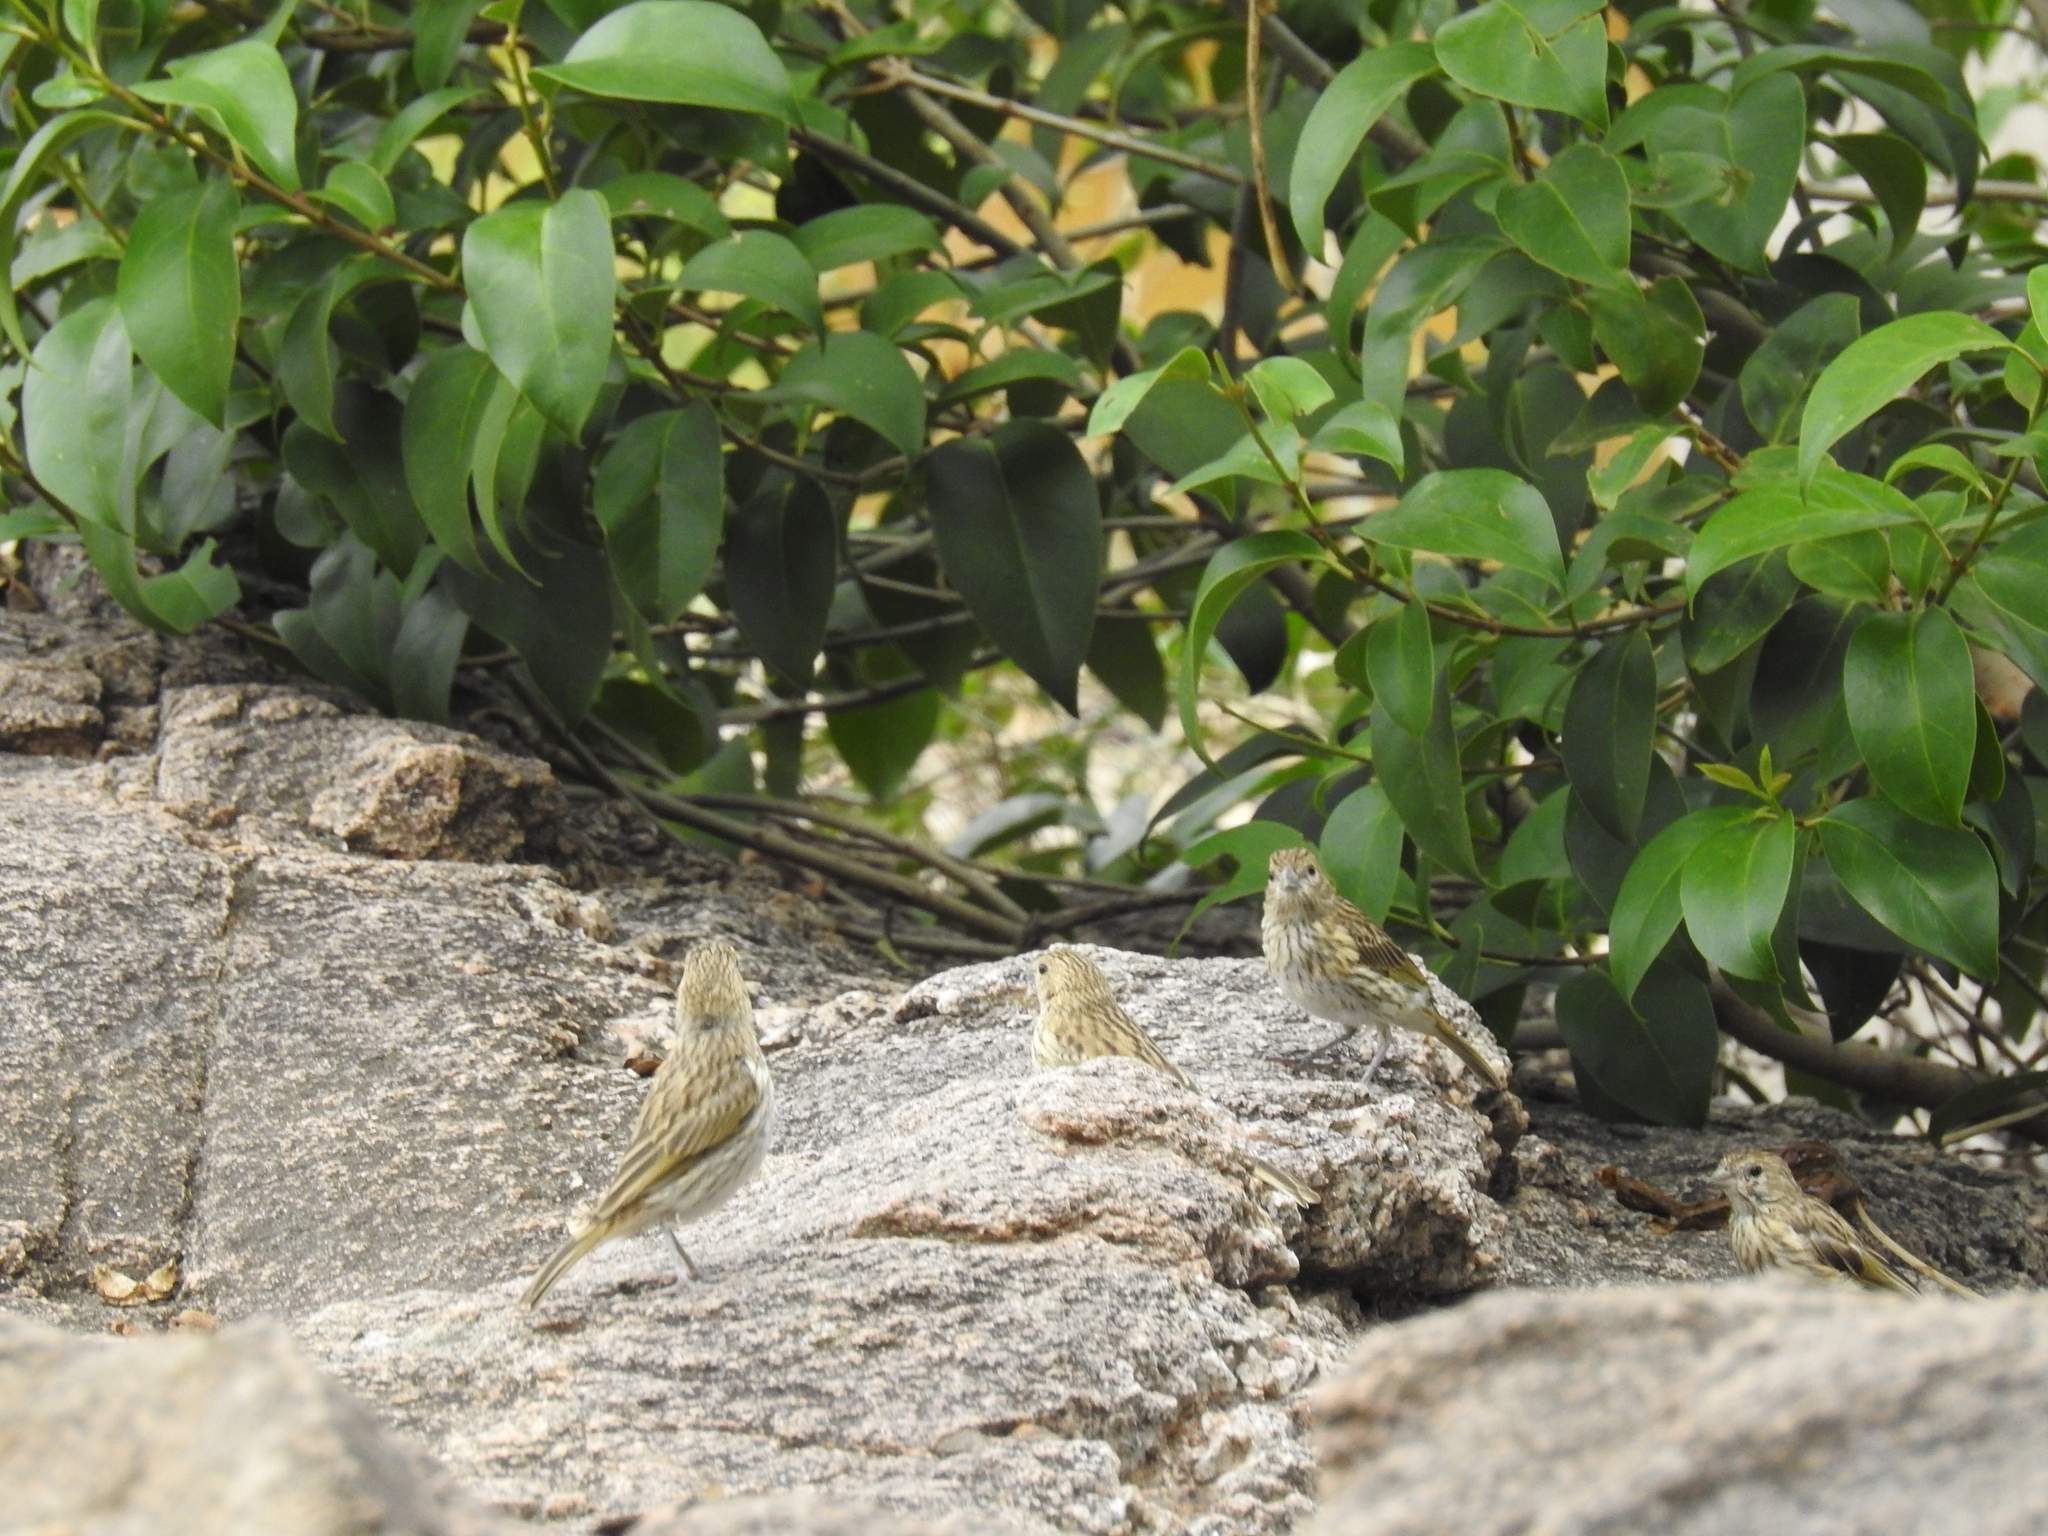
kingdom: Animalia
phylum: Chordata
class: Aves
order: Passeriformes
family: Thraupidae
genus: Sicalis
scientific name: Sicalis flaveola
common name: Saffron finch
